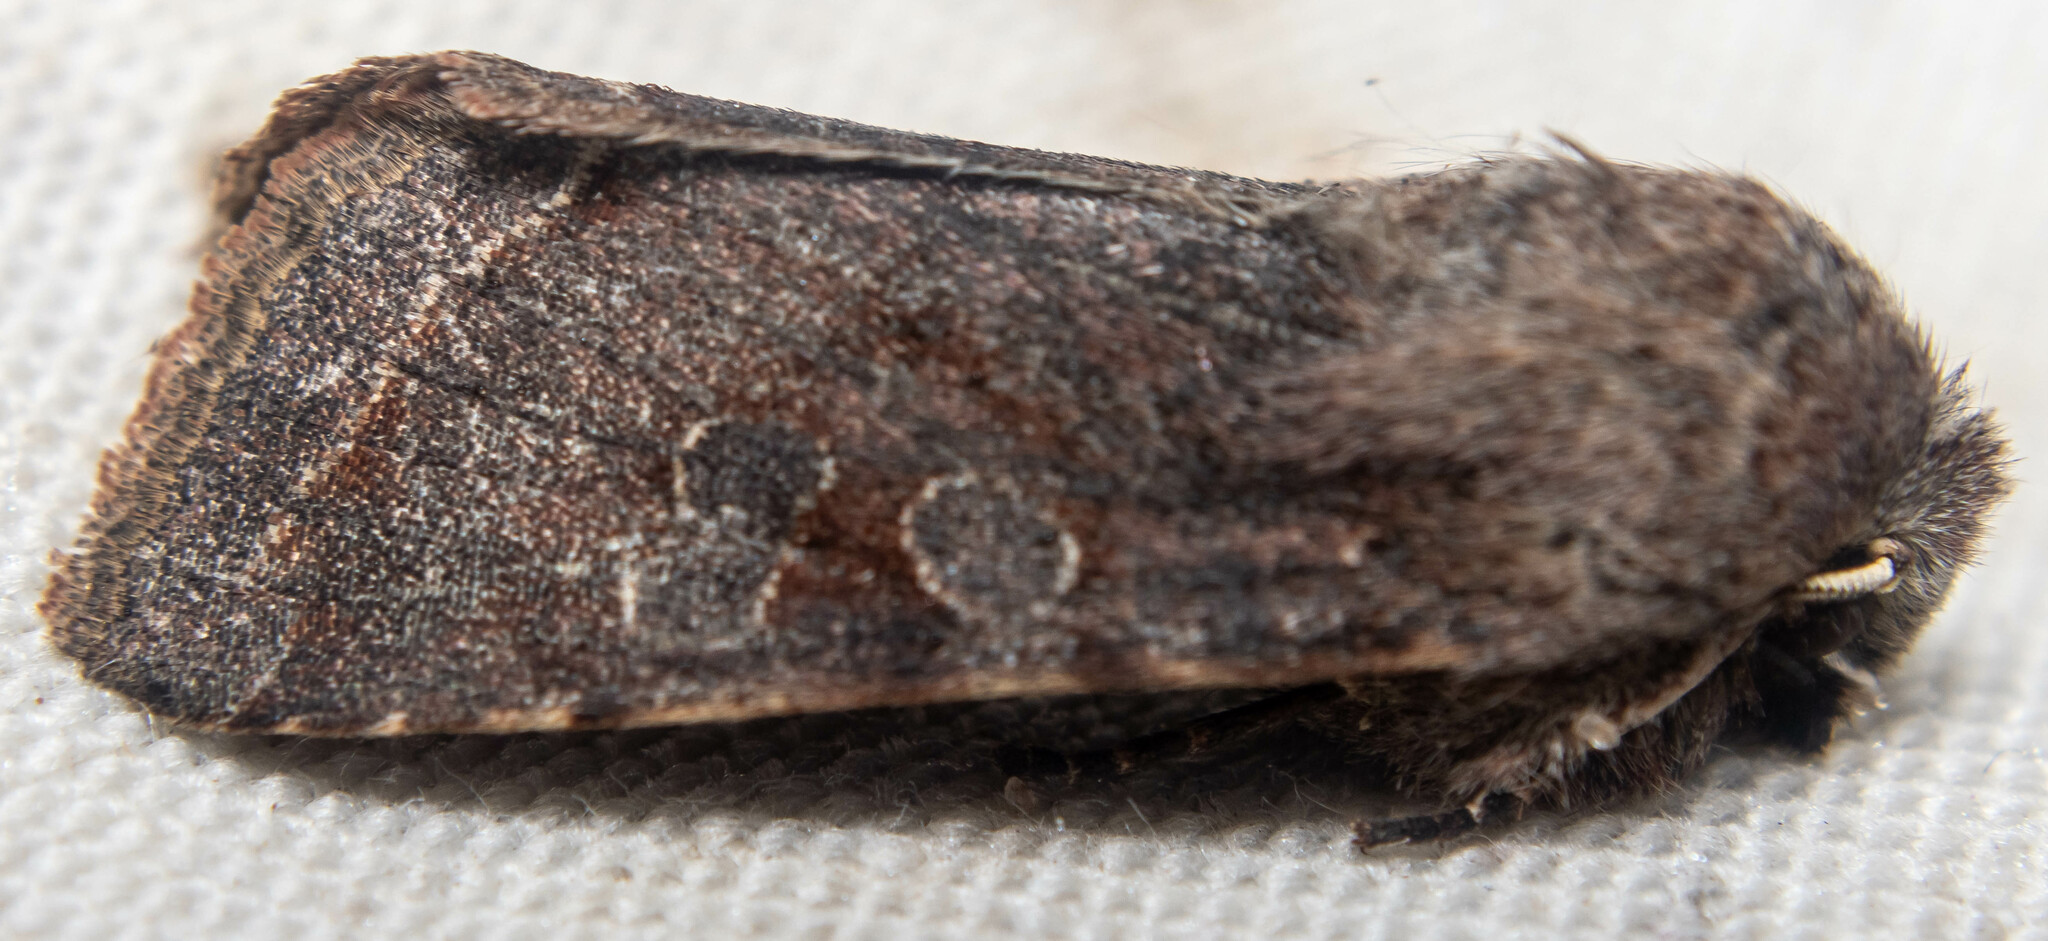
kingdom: Animalia
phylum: Arthropoda
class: Insecta
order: Lepidoptera
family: Noctuidae
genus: Orthosia
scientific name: Orthosia incerta
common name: Clouded drab
